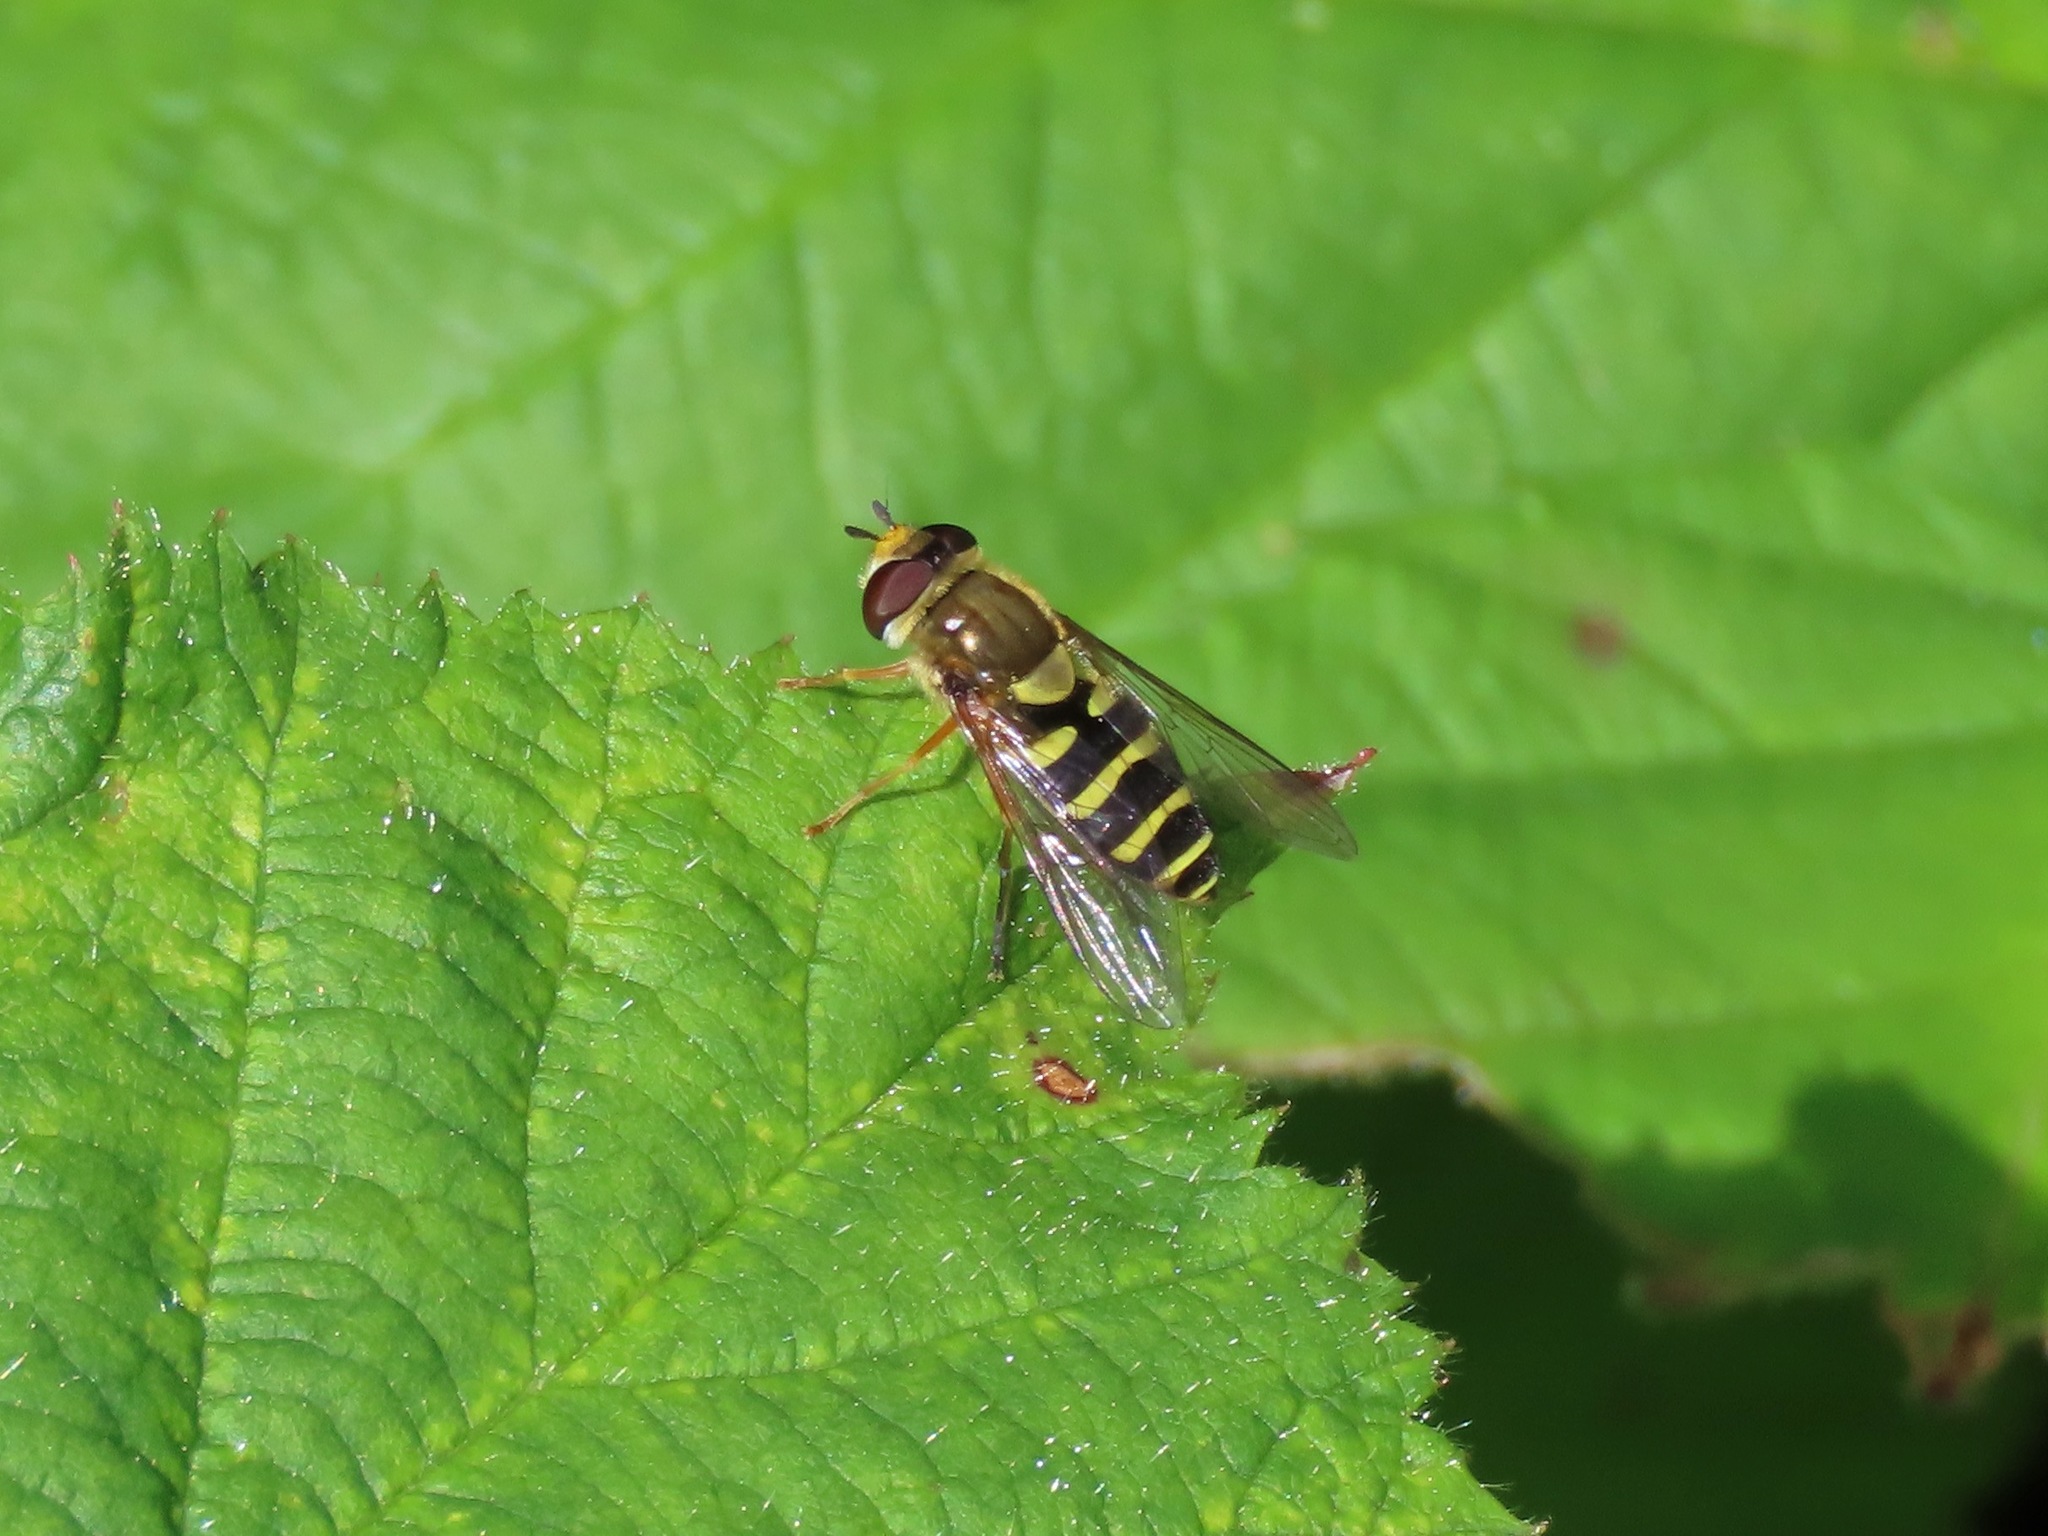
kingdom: Animalia
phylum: Arthropoda
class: Insecta
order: Diptera
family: Syrphidae
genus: Syrphus
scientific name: Syrphus opinator
